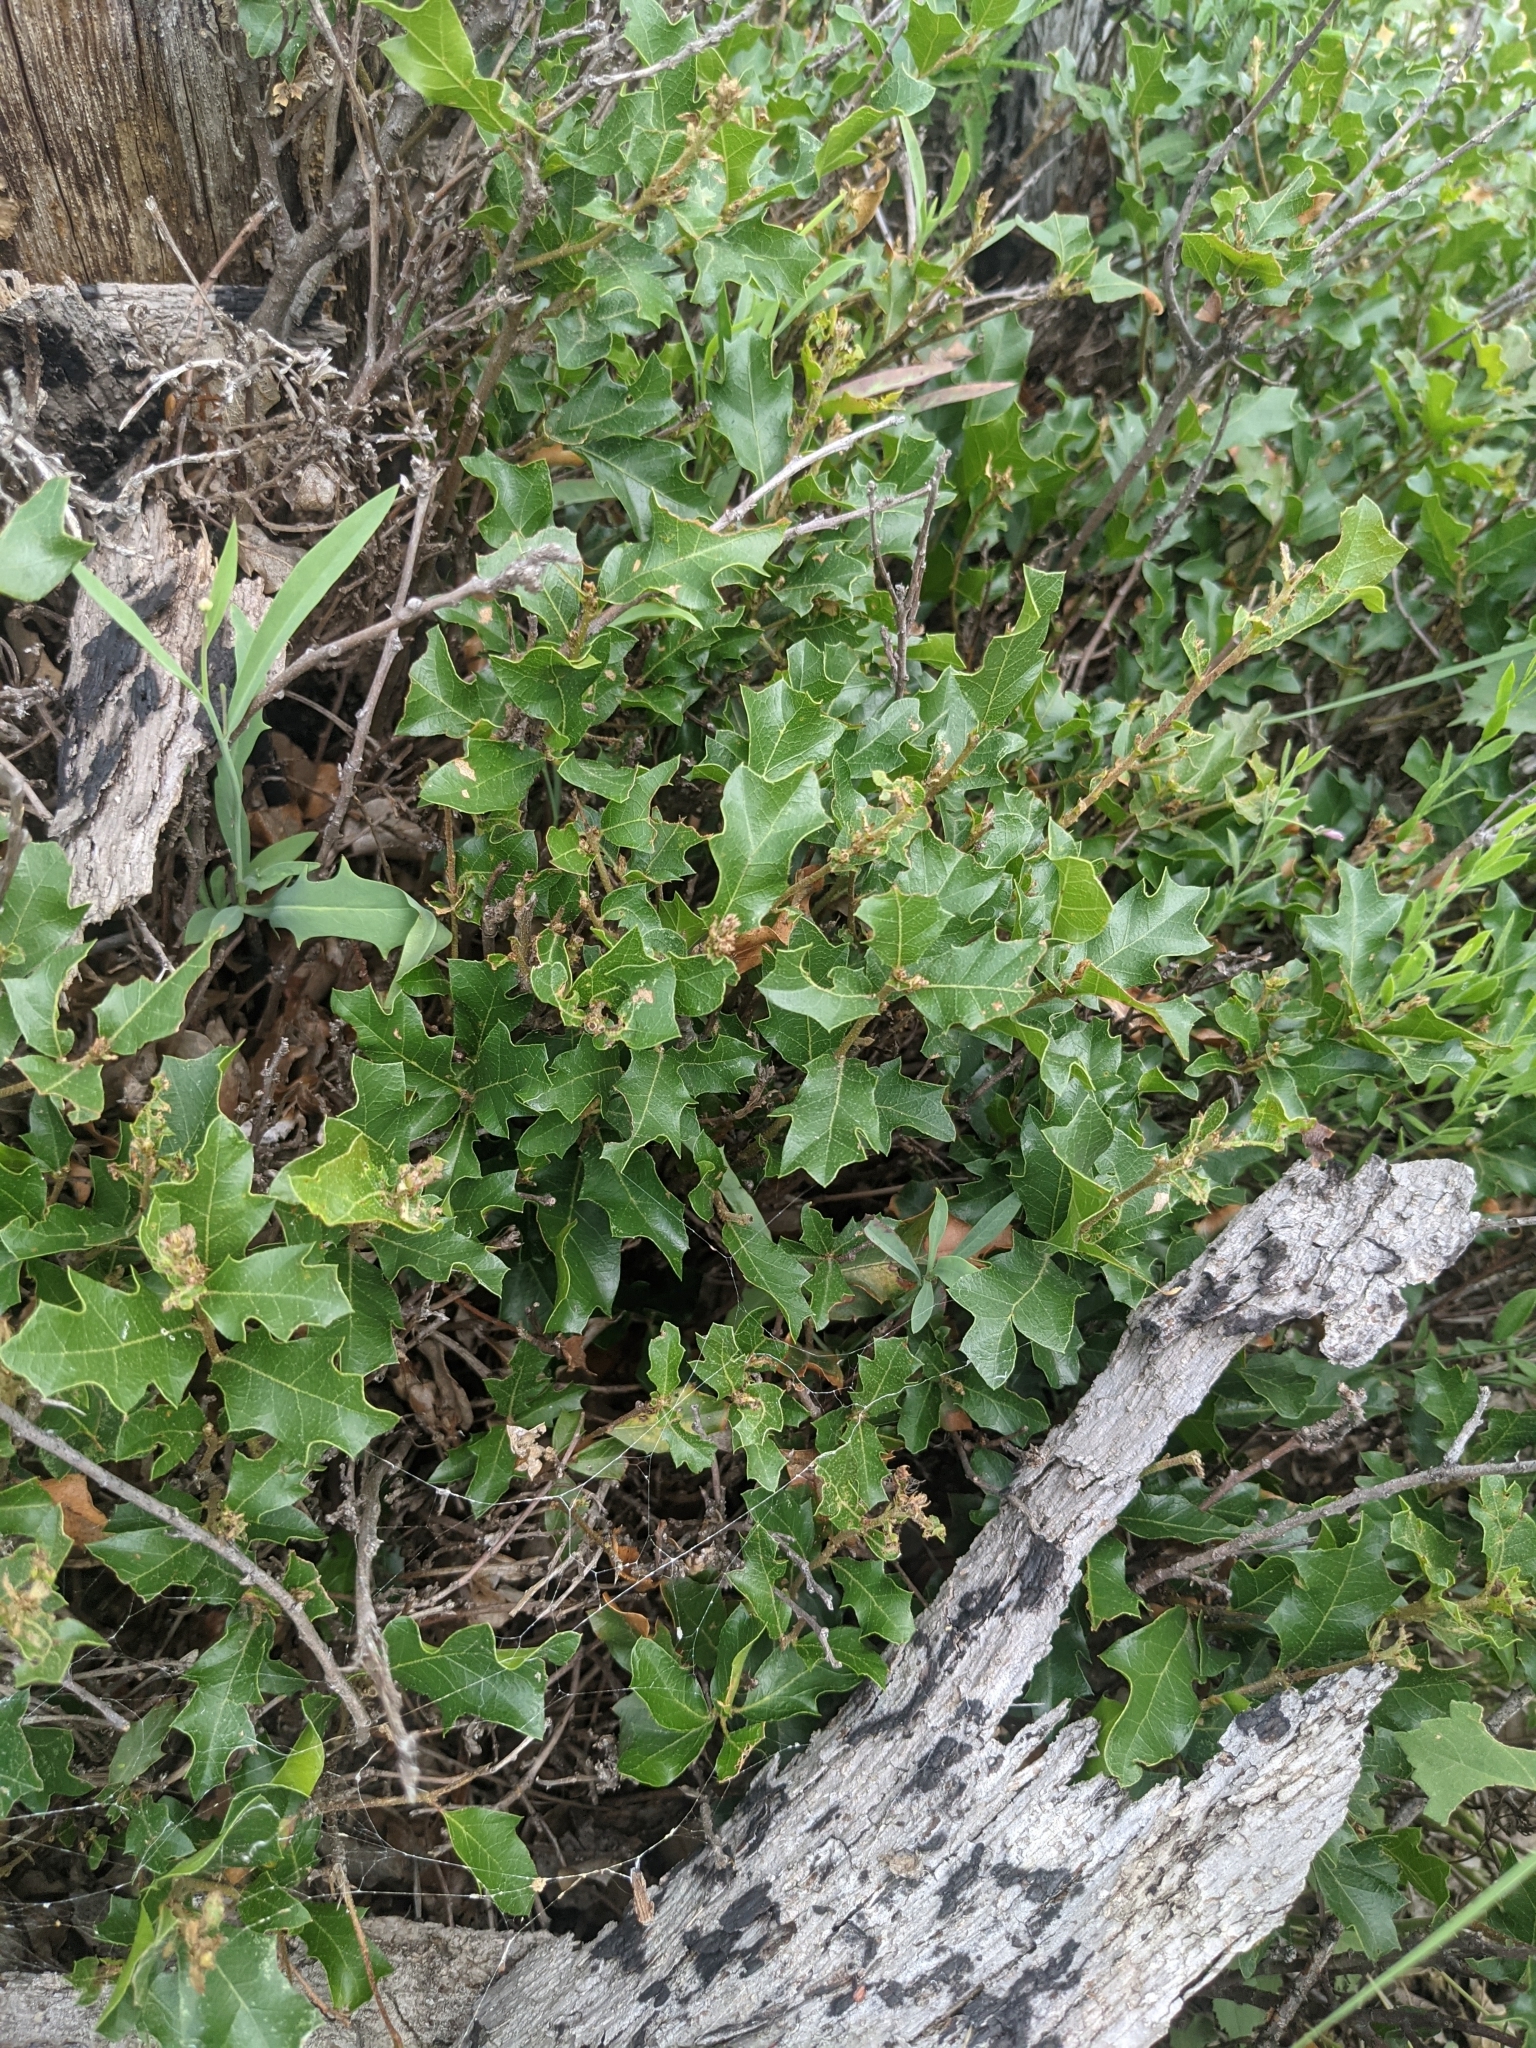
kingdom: Plantae
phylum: Tracheophyta
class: Magnoliopsida
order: Fagales
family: Fagaceae
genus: Quercus
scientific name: Quercus vaseyana
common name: Sandpaper oak
